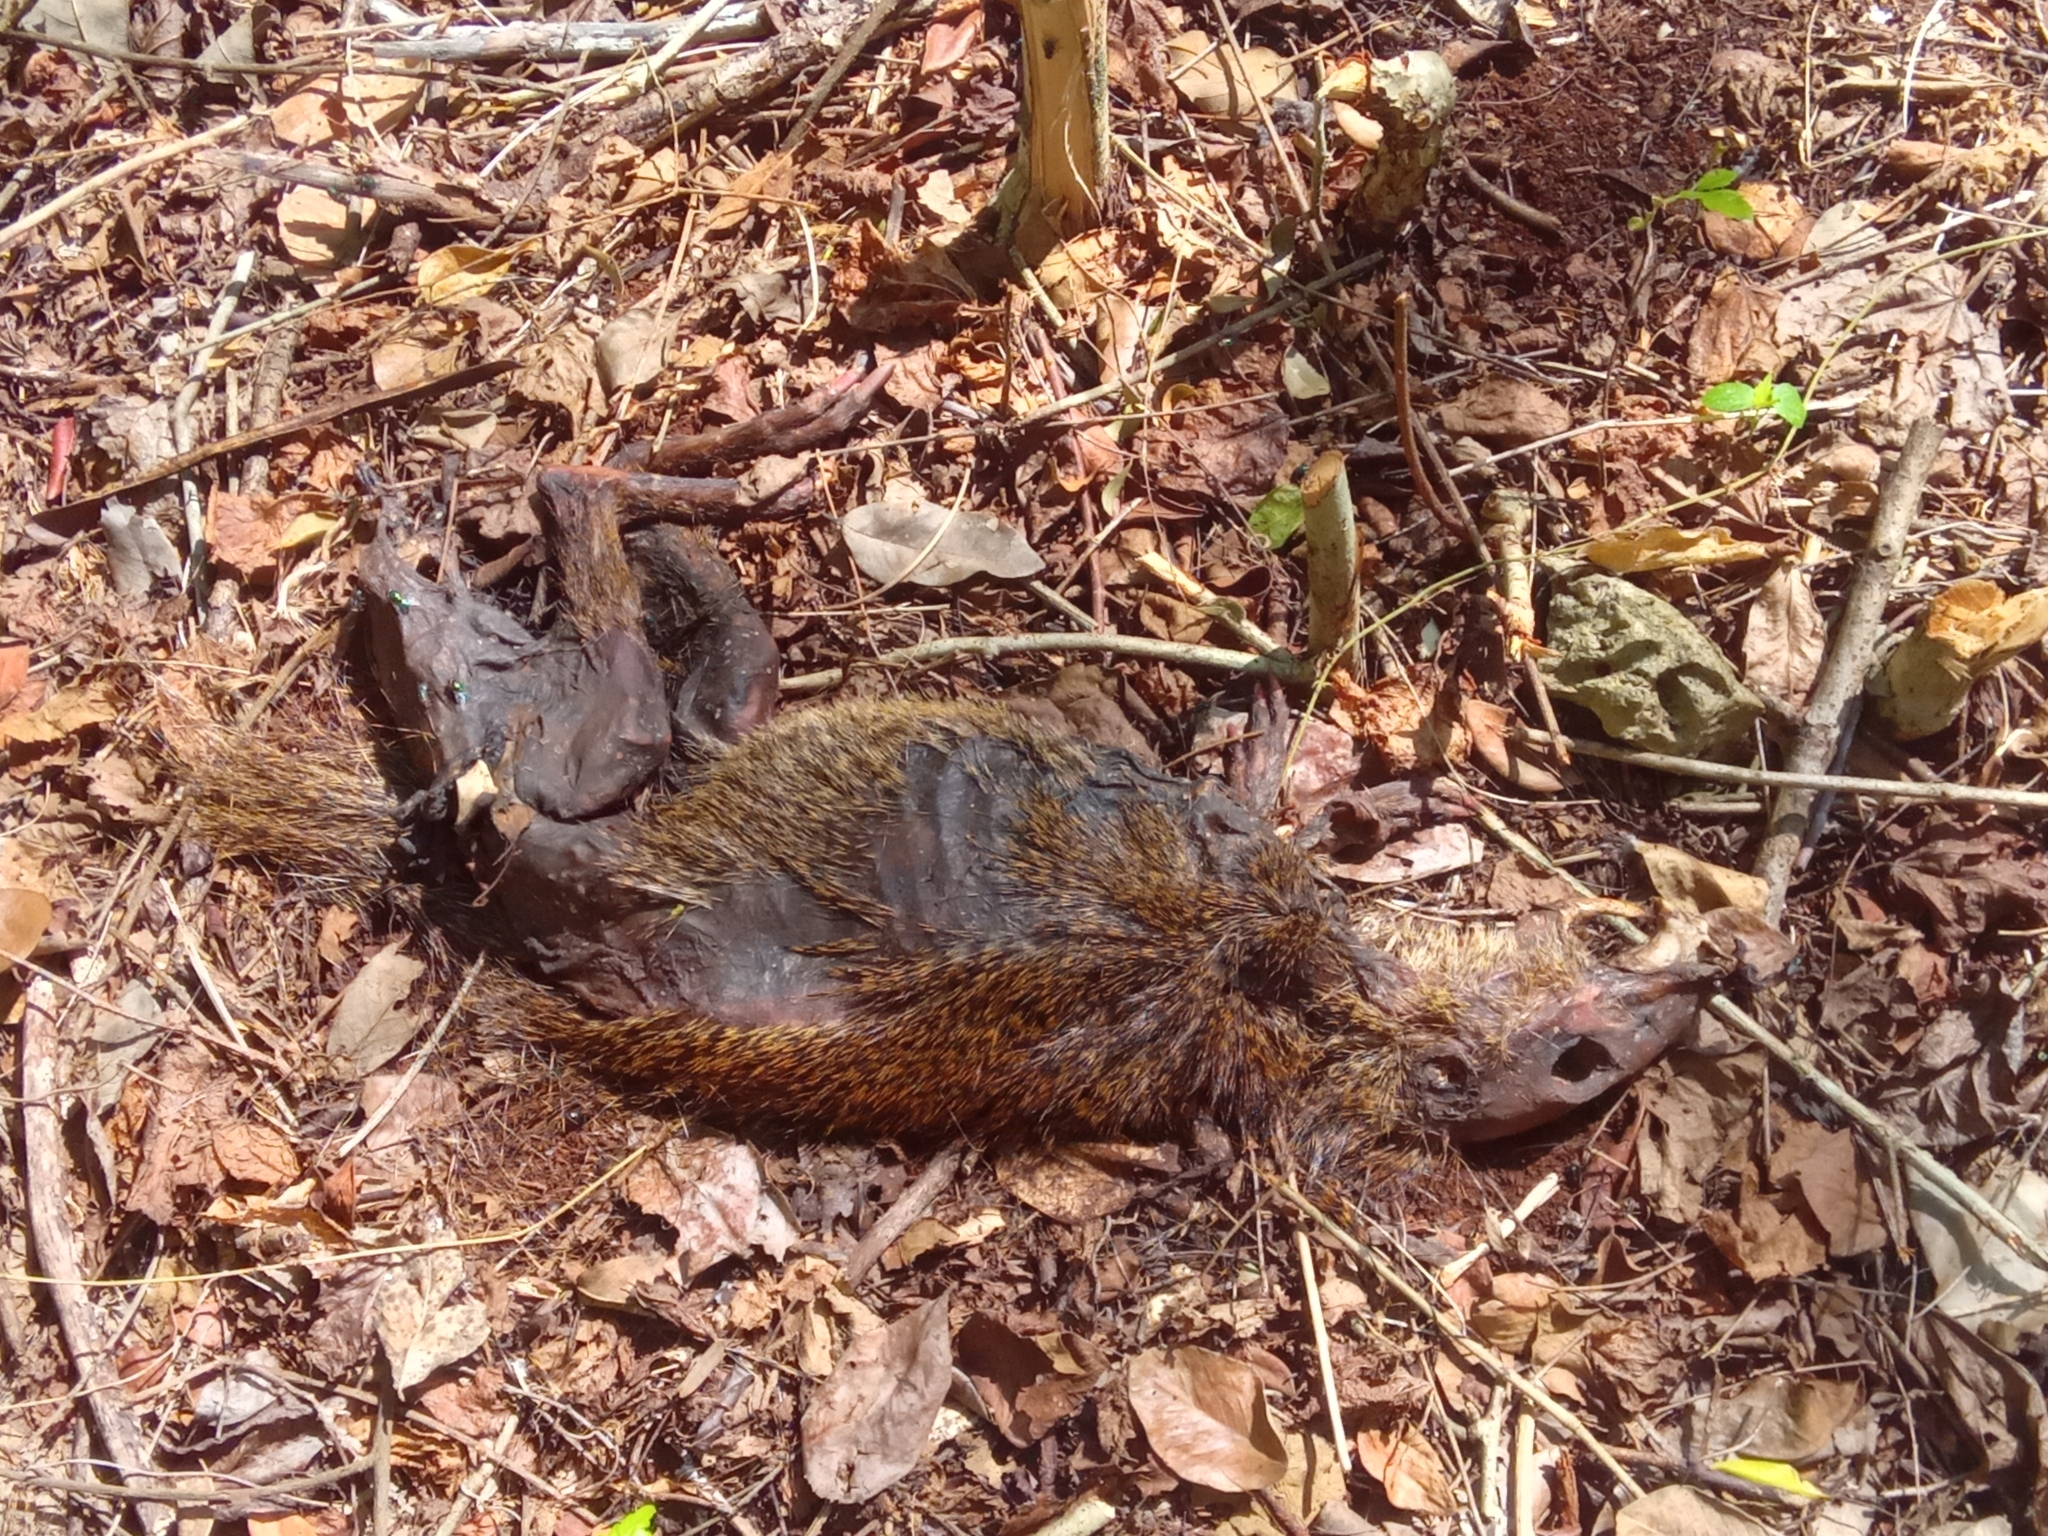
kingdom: Animalia
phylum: Chordata
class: Mammalia
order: Rodentia
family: Dasyproctidae
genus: Dasyprocta
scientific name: Dasyprocta punctata
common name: Central american agouti
